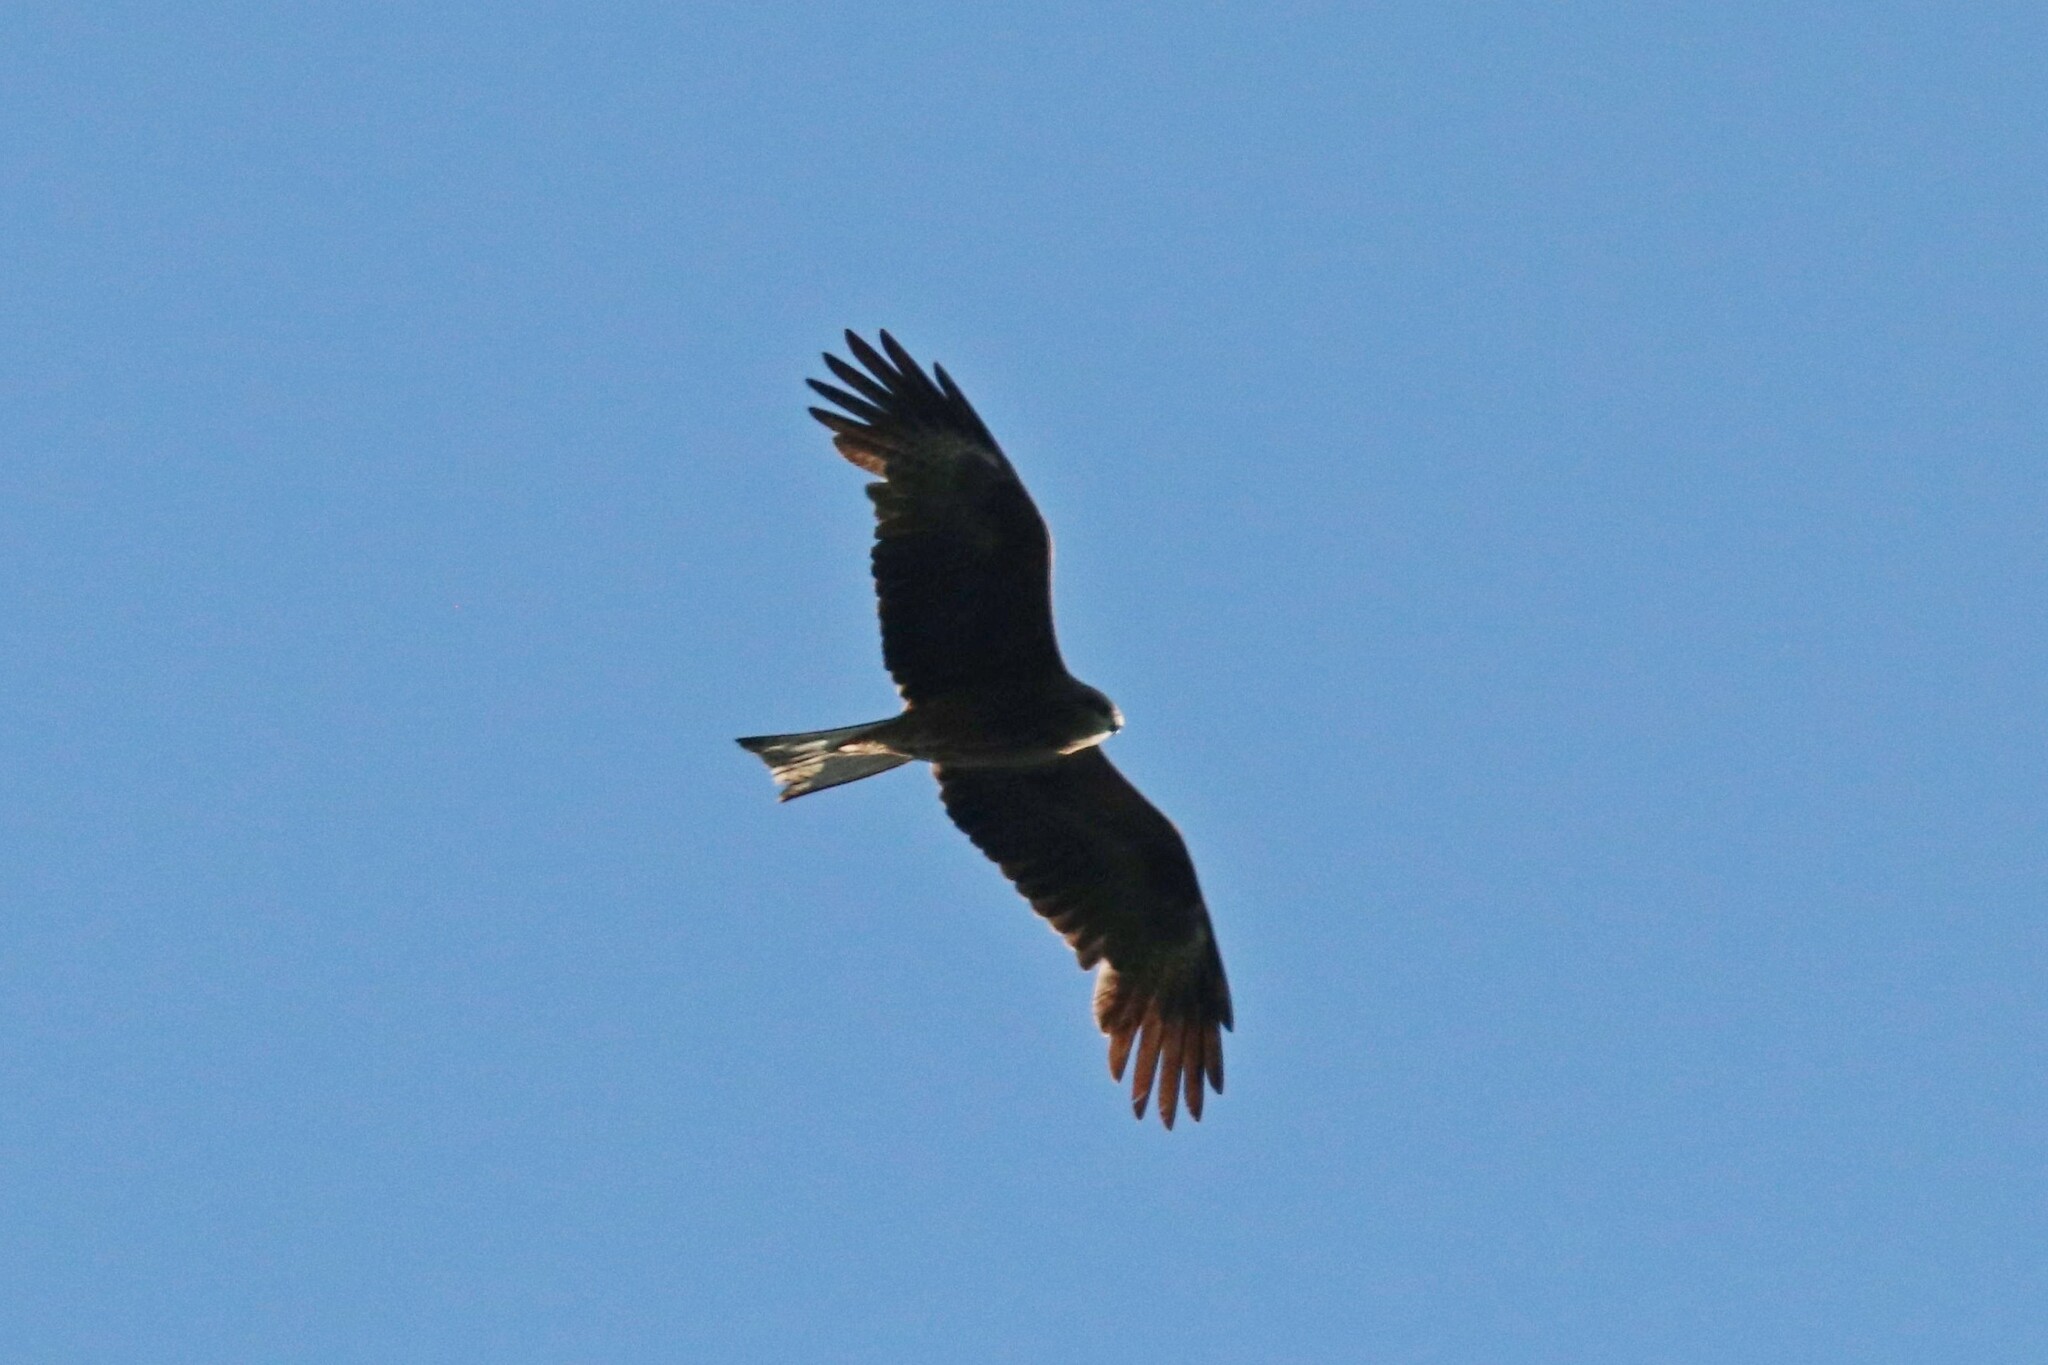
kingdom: Animalia
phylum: Chordata
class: Aves
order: Accipitriformes
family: Accipitridae
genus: Milvus
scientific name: Milvus migrans
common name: Black kite
